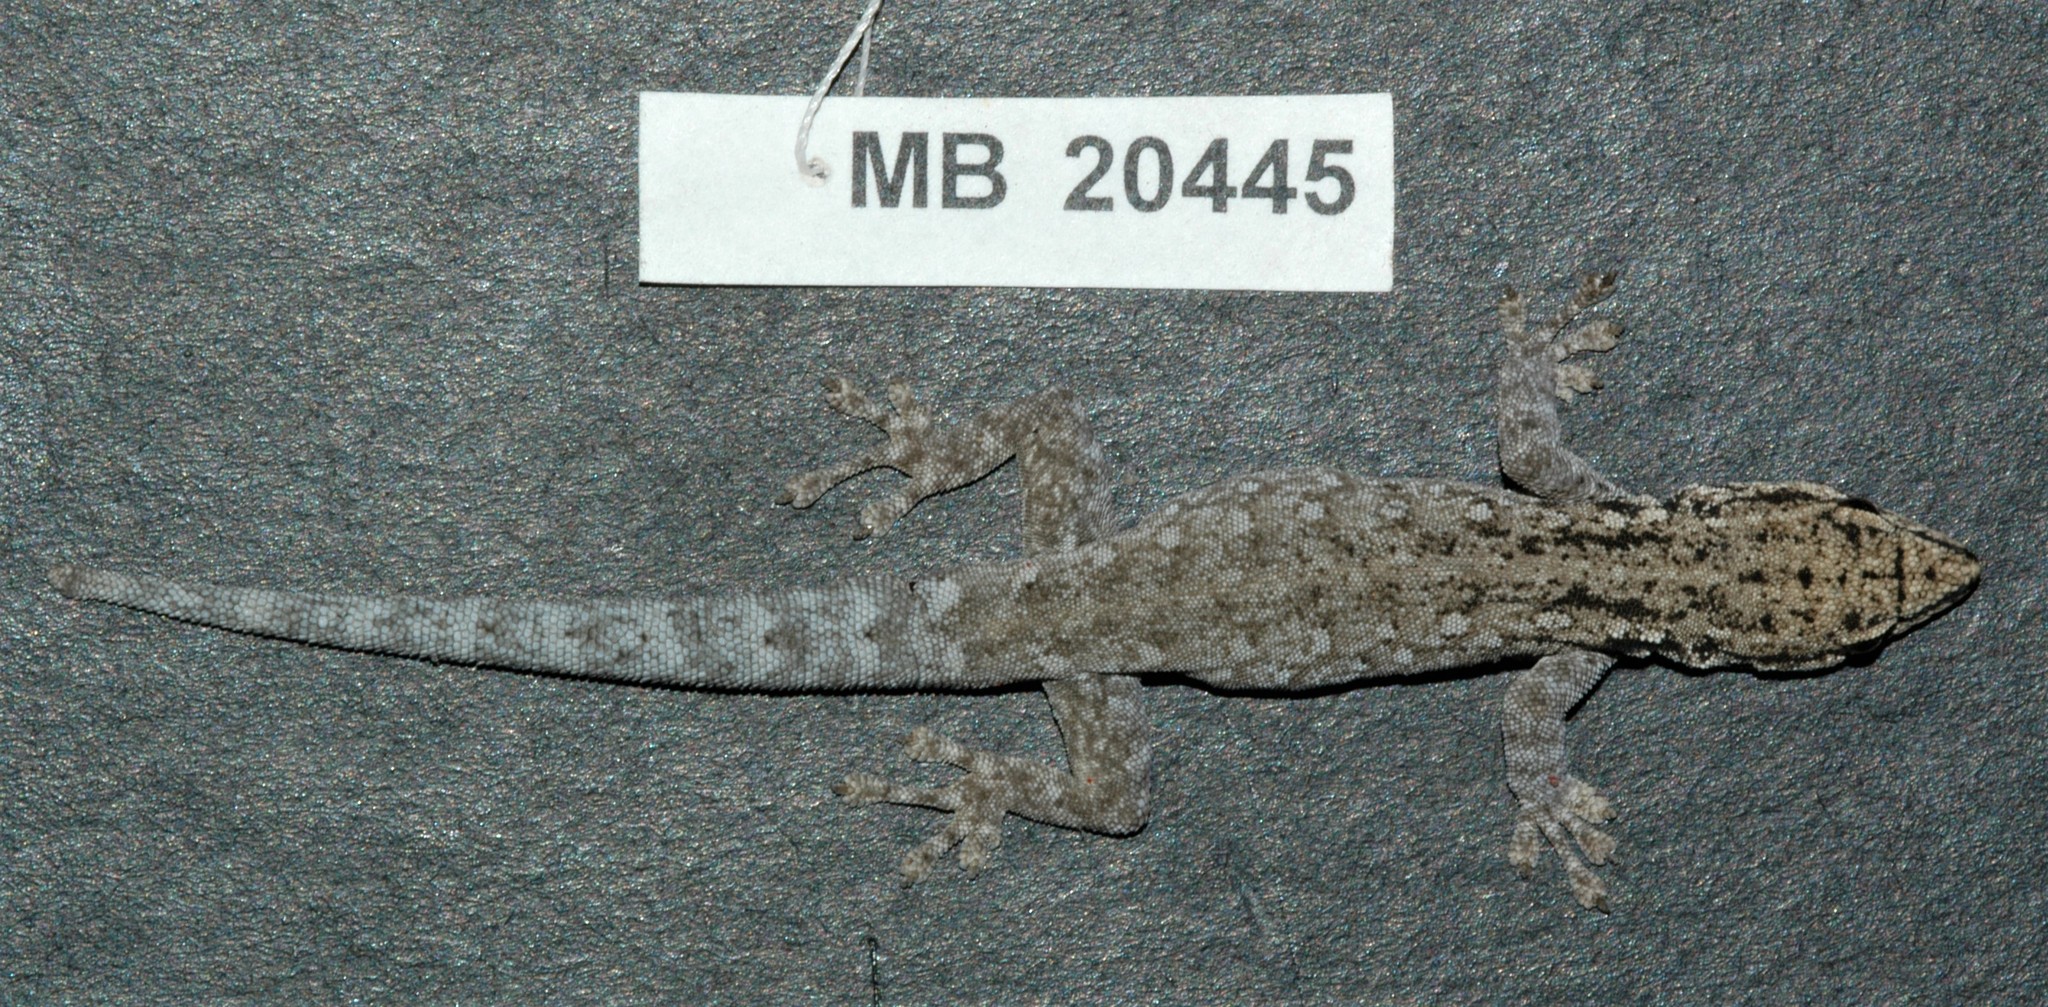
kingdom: Animalia
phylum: Chordata
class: Squamata
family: Gekkonidae
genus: Lygodactylus
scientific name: Lygodactylus chobiensis
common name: Okavango dwarf gecko
